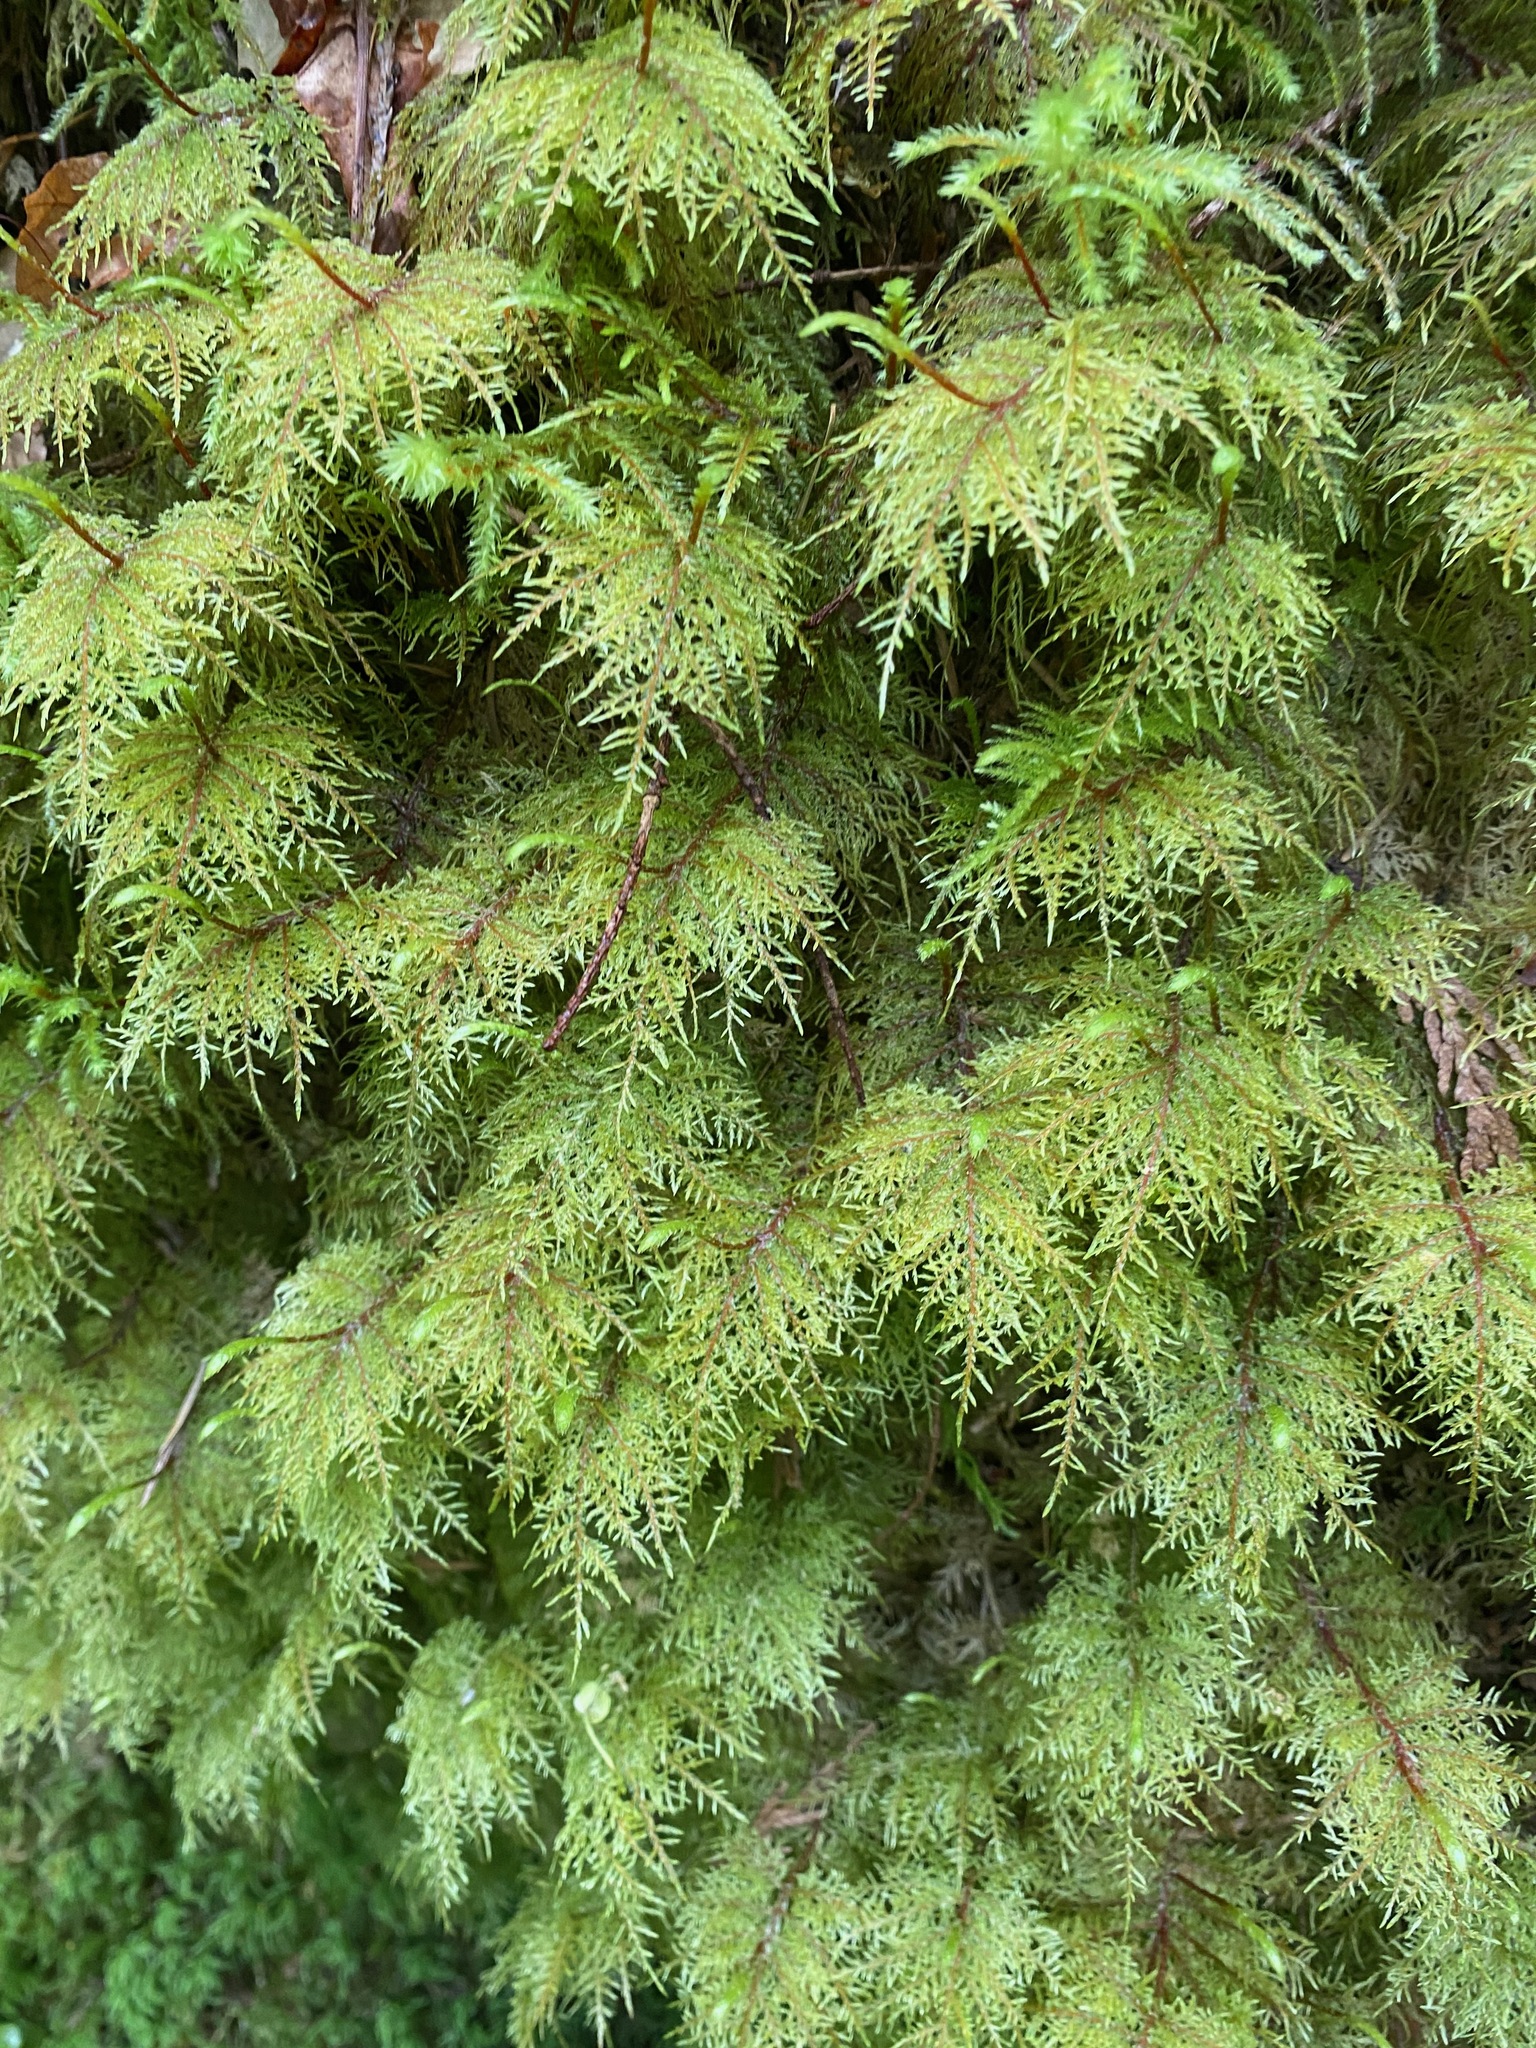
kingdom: Plantae
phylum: Bryophyta
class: Bryopsida
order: Hypnales
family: Hylocomiaceae
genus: Hylocomium
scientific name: Hylocomium splendens
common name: Stairstep moss
